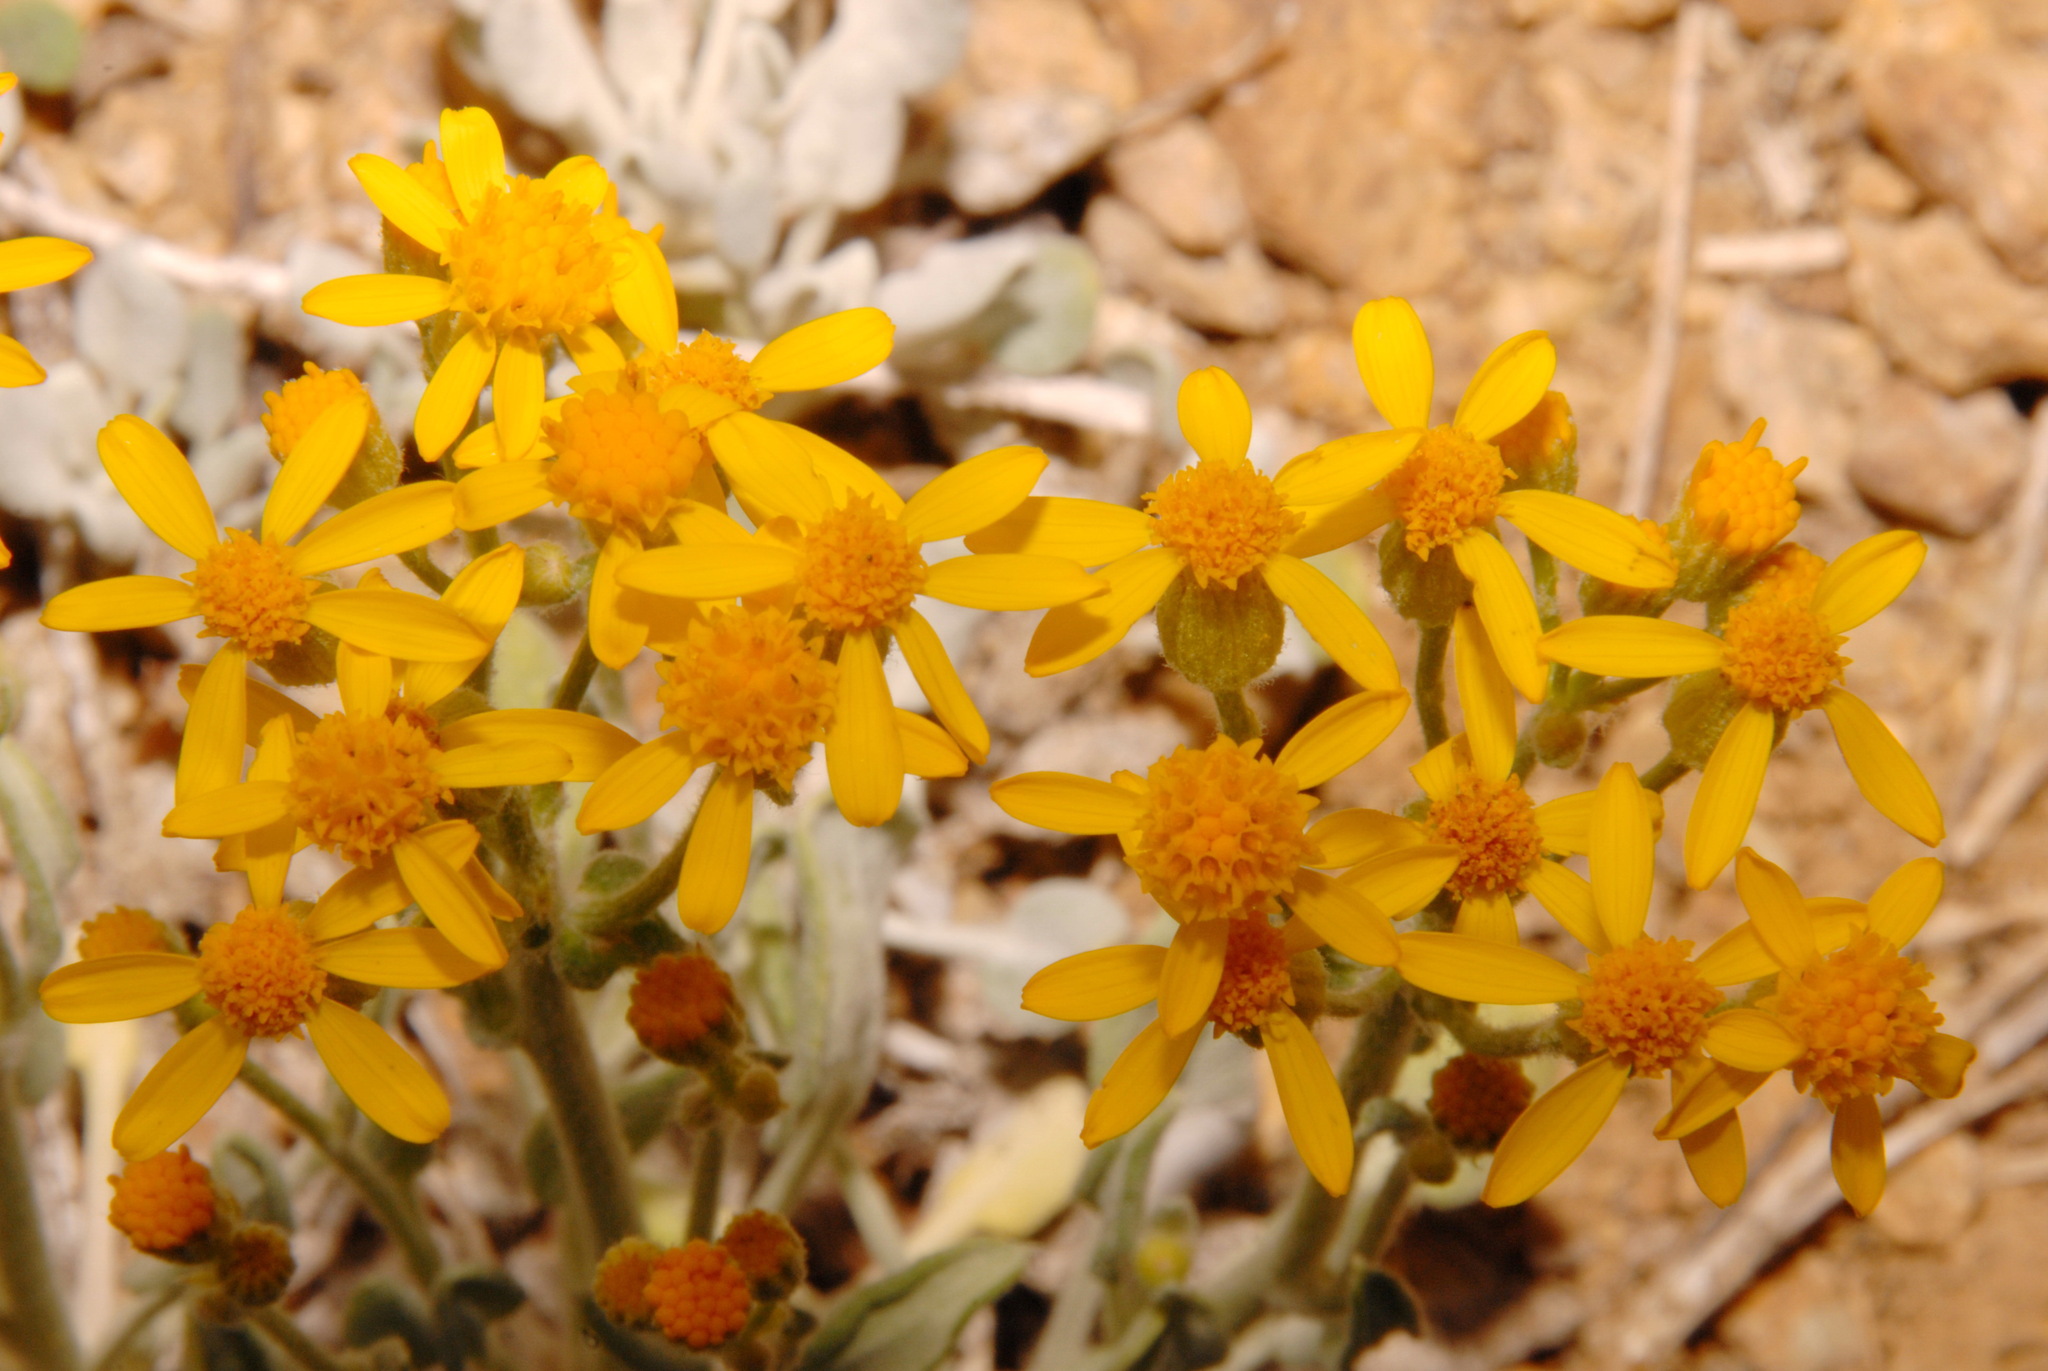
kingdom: Plantae
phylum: Tracheophyta
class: Magnoliopsida
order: Asterales
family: Asteraceae
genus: Packera
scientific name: Packera cana
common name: Woolly groundsel
